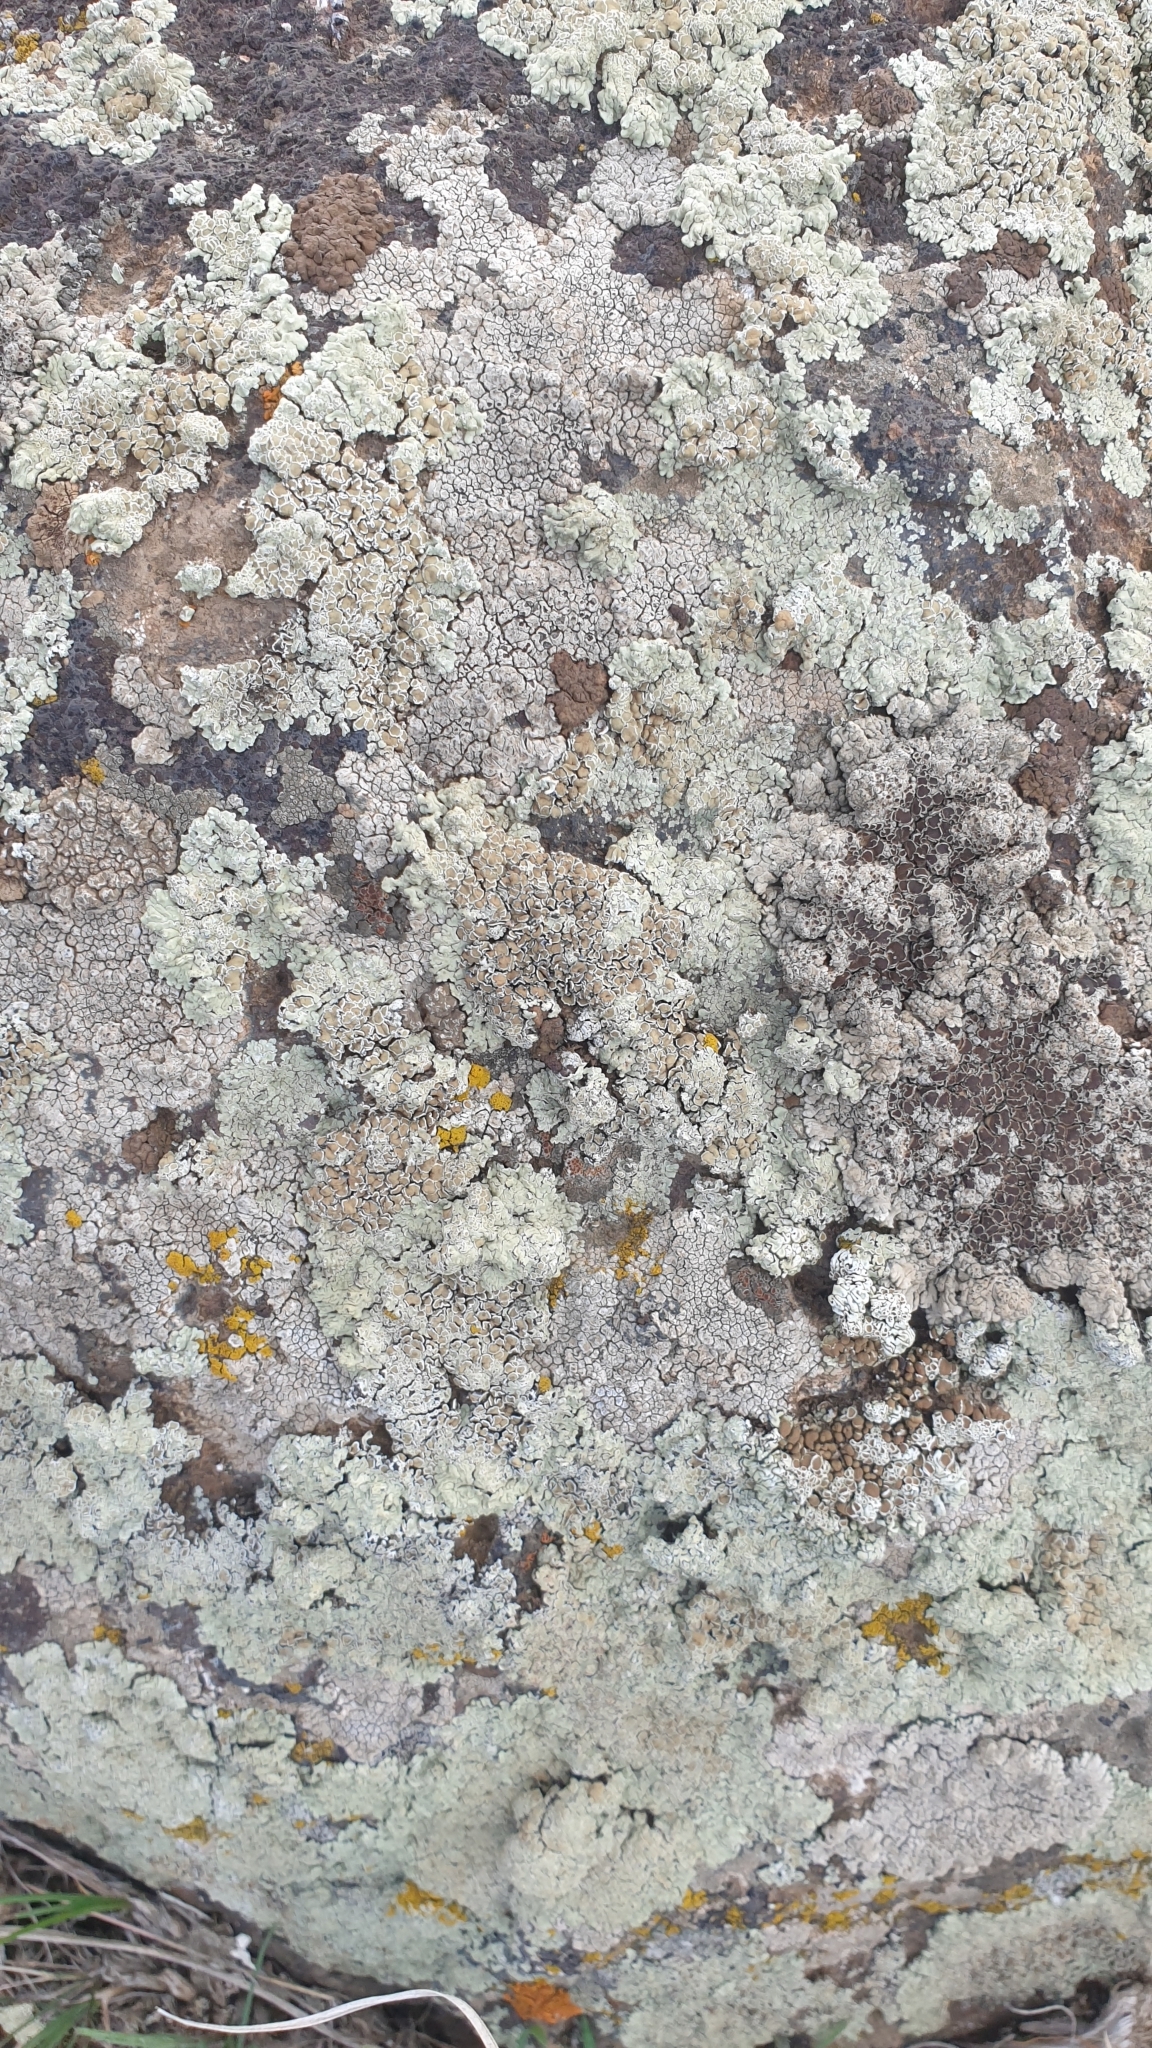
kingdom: Fungi
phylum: Ascomycota
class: Lecanoromycetes
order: Lecanorales
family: Lecanoraceae
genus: Protoparmeliopsis
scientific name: Protoparmeliopsis muralis
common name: Stonewall rim lichen
